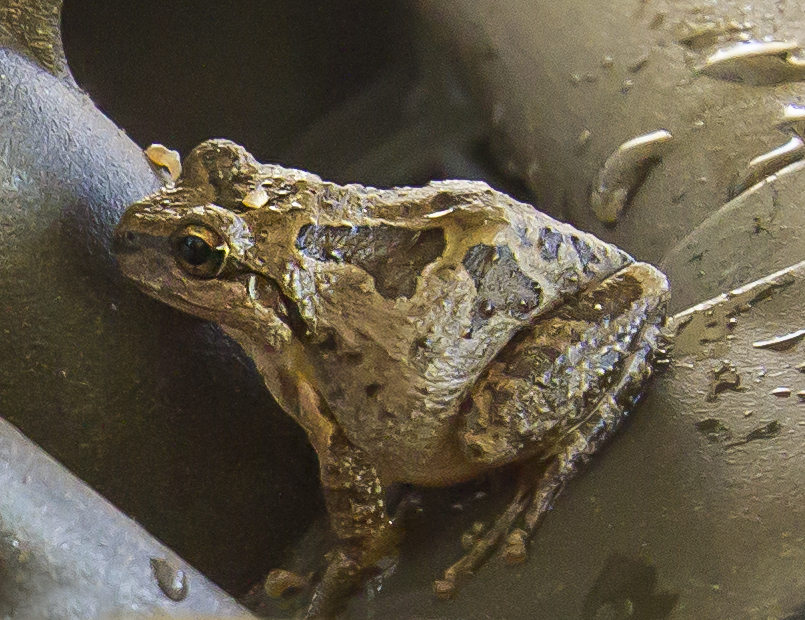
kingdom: Animalia
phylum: Chordata
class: Amphibia
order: Anura
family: Hylidae
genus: Pseudacris
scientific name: Pseudacris regilla
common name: Pacific chorus frog
